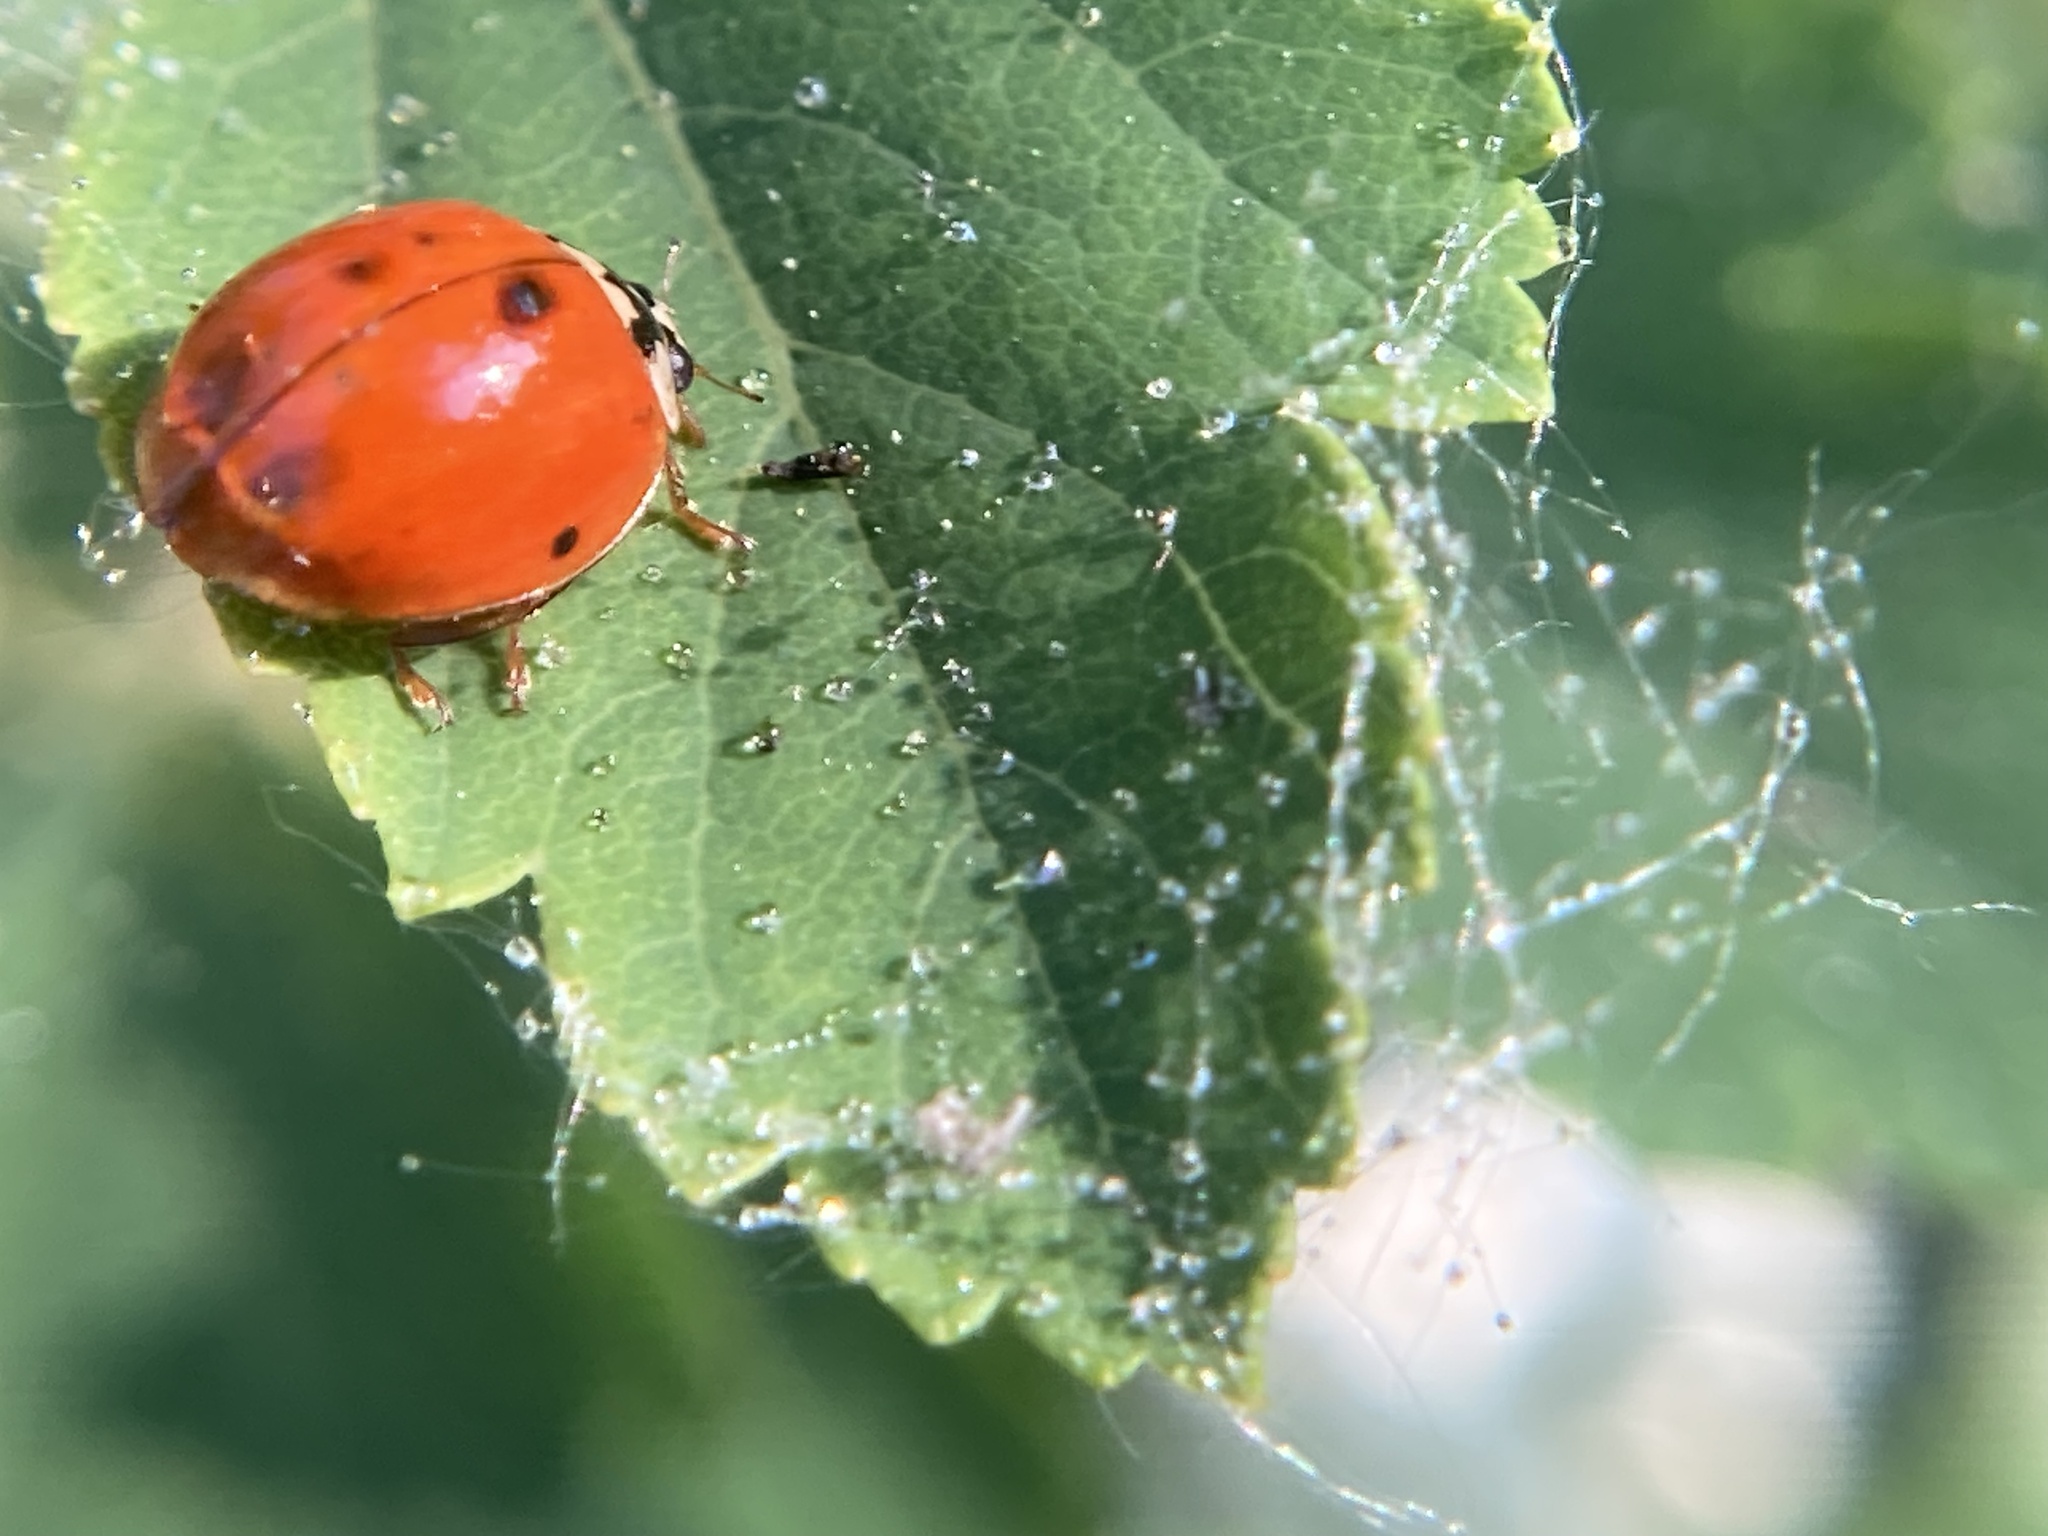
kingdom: Animalia
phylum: Arthropoda
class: Insecta
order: Coleoptera
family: Coccinellidae
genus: Harmonia
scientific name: Harmonia axyridis
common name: Harlequin ladybird
